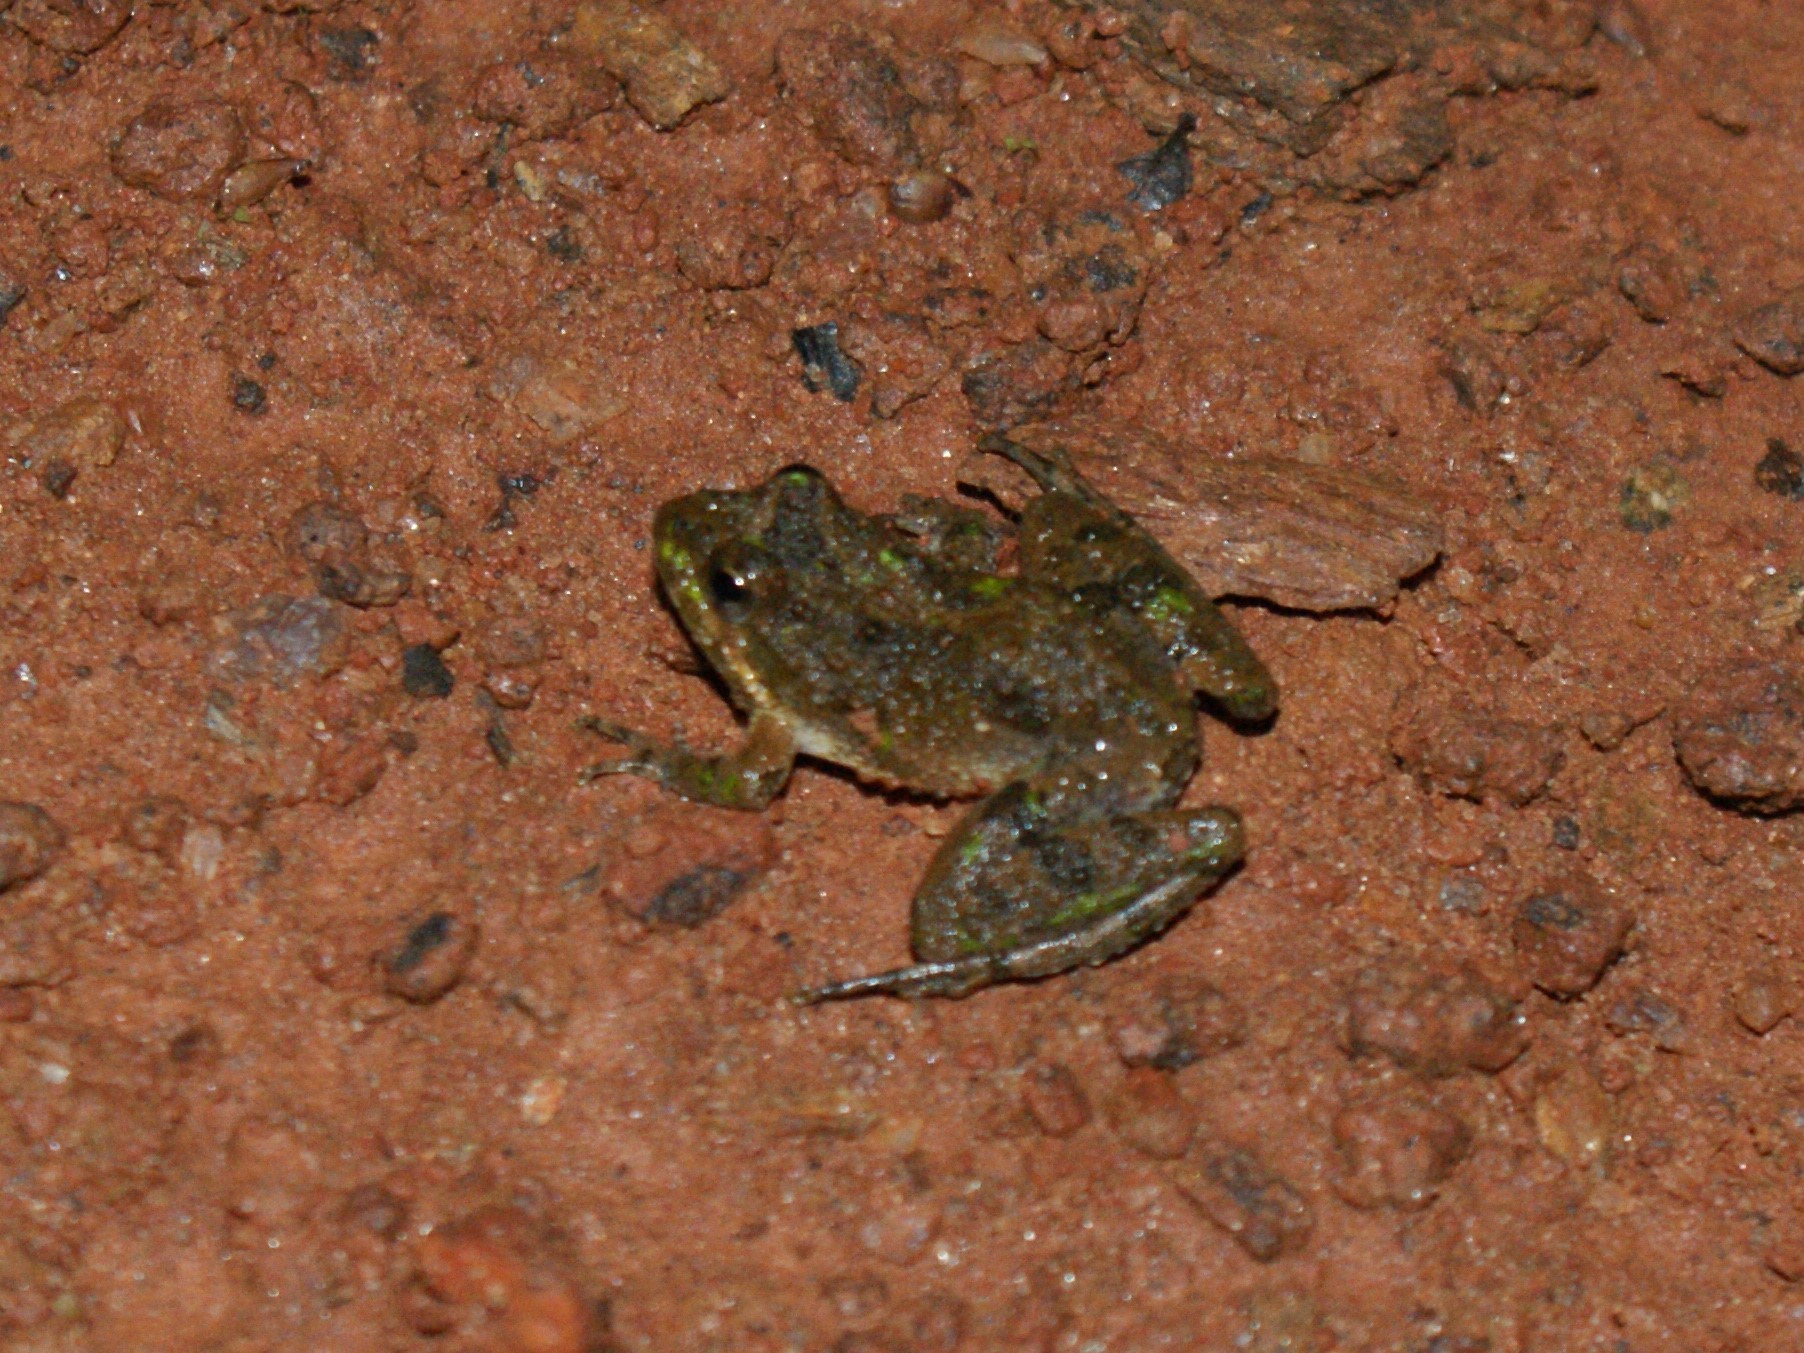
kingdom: Animalia
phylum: Chordata
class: Amphibia
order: Anura
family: Hylidae
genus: Acris
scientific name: Acris crepitans
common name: Northern cricket frog
